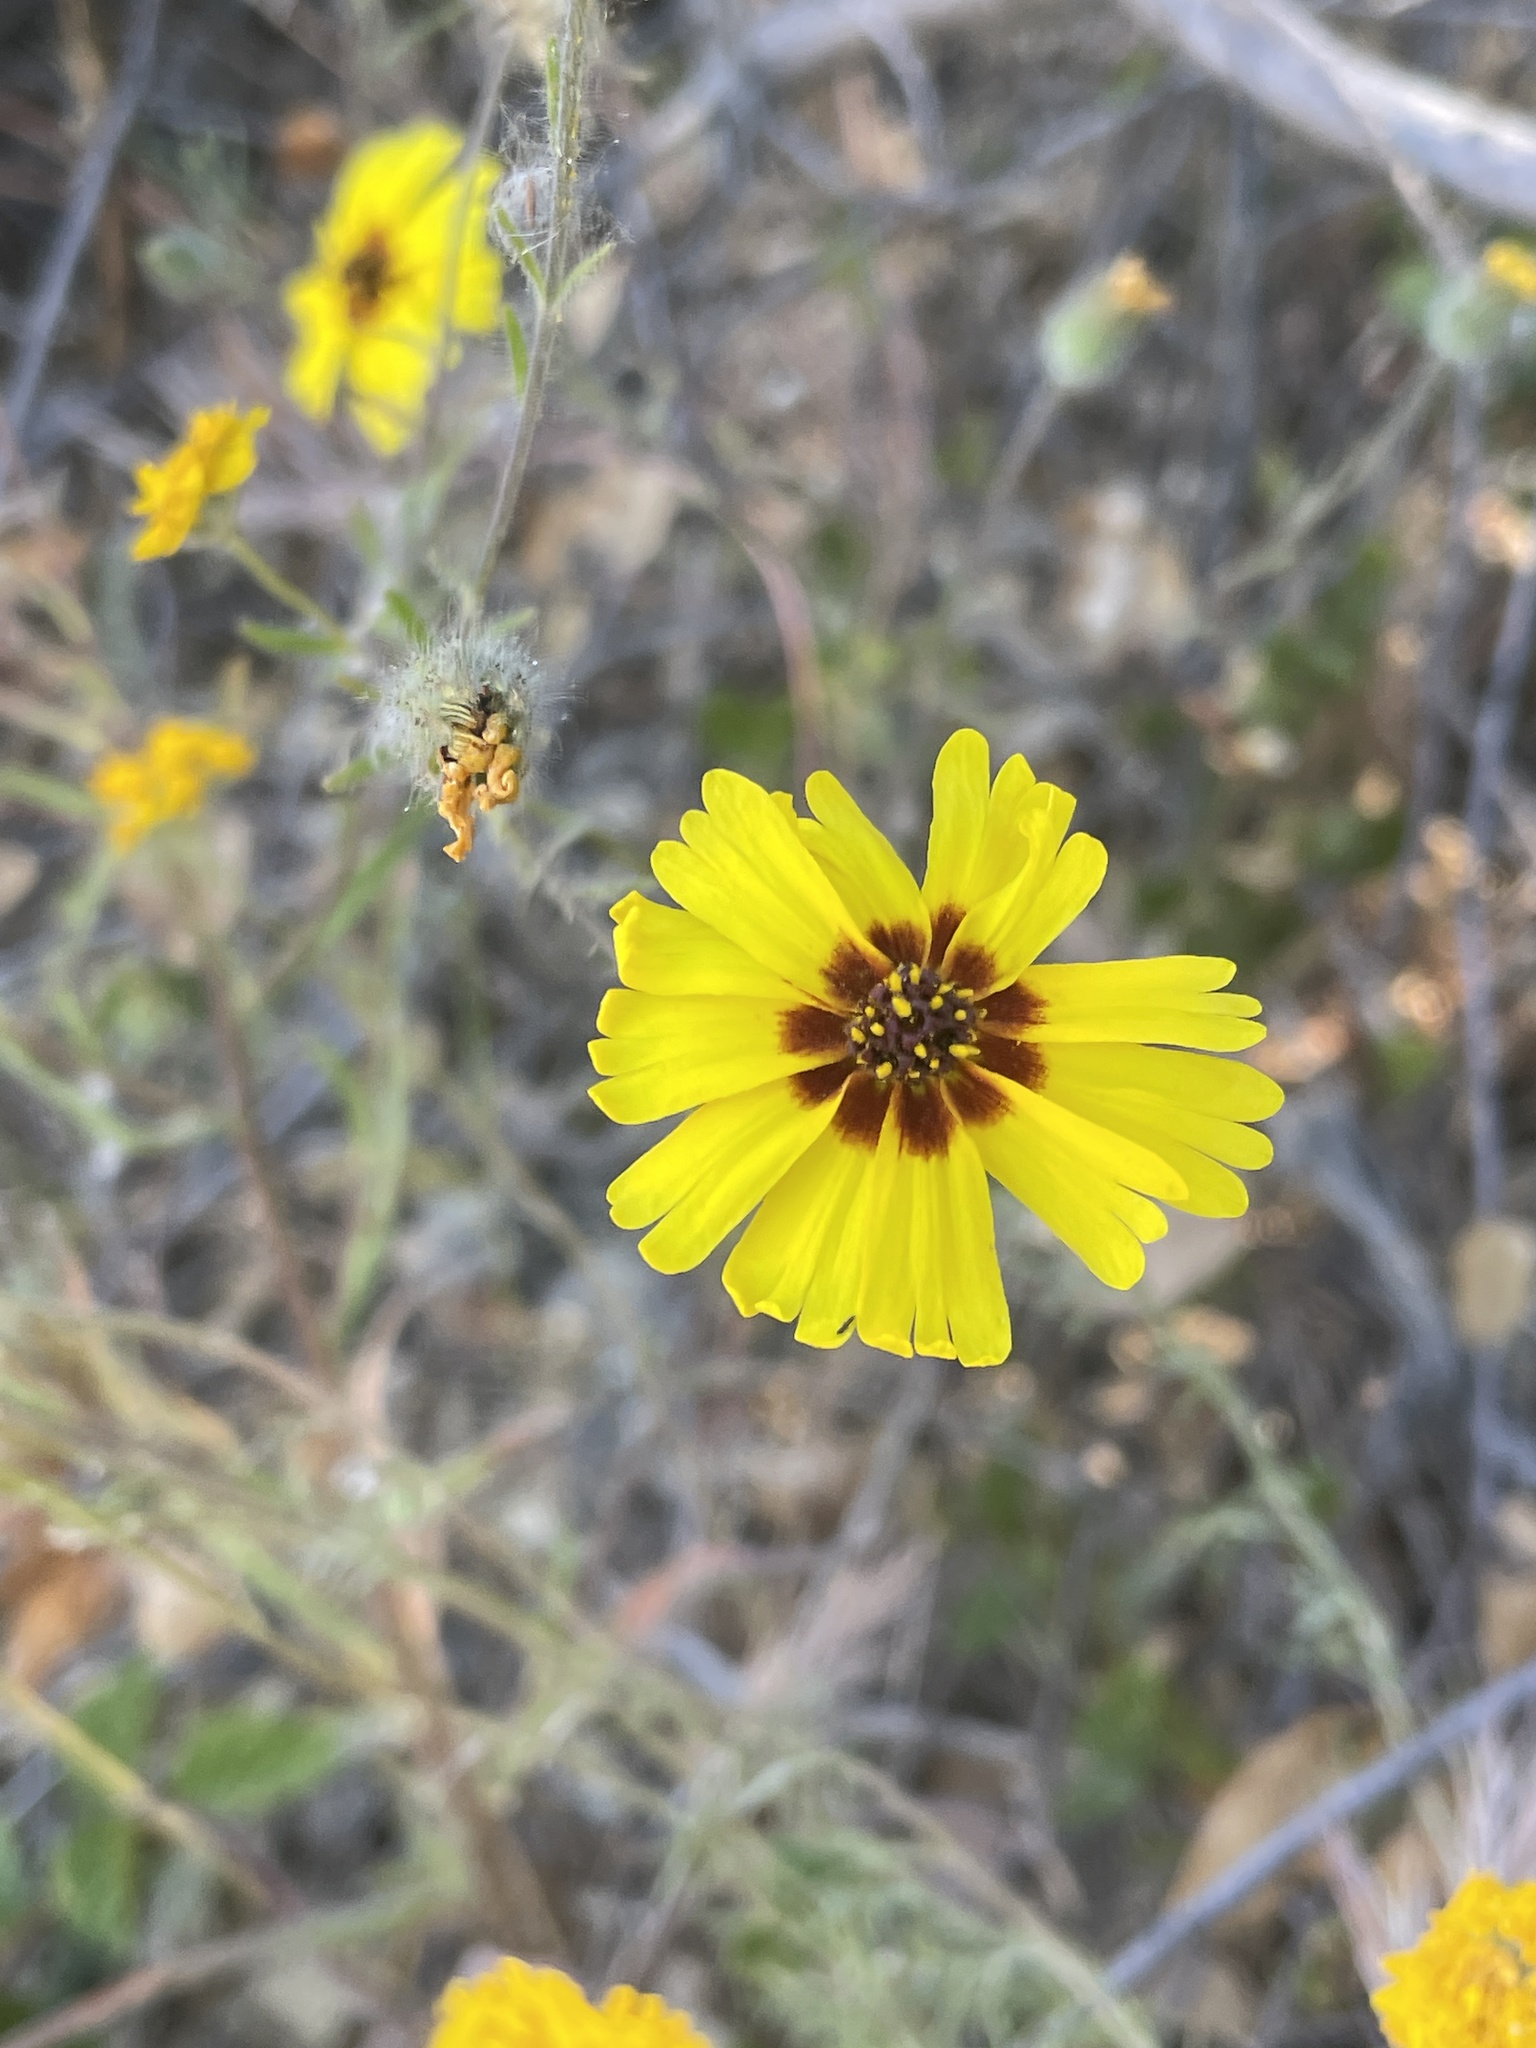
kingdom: Plantae
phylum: Tracheophyta
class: Magnoliopsida
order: Asterales
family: Asteraceae
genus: Madia
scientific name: Madia elegans
